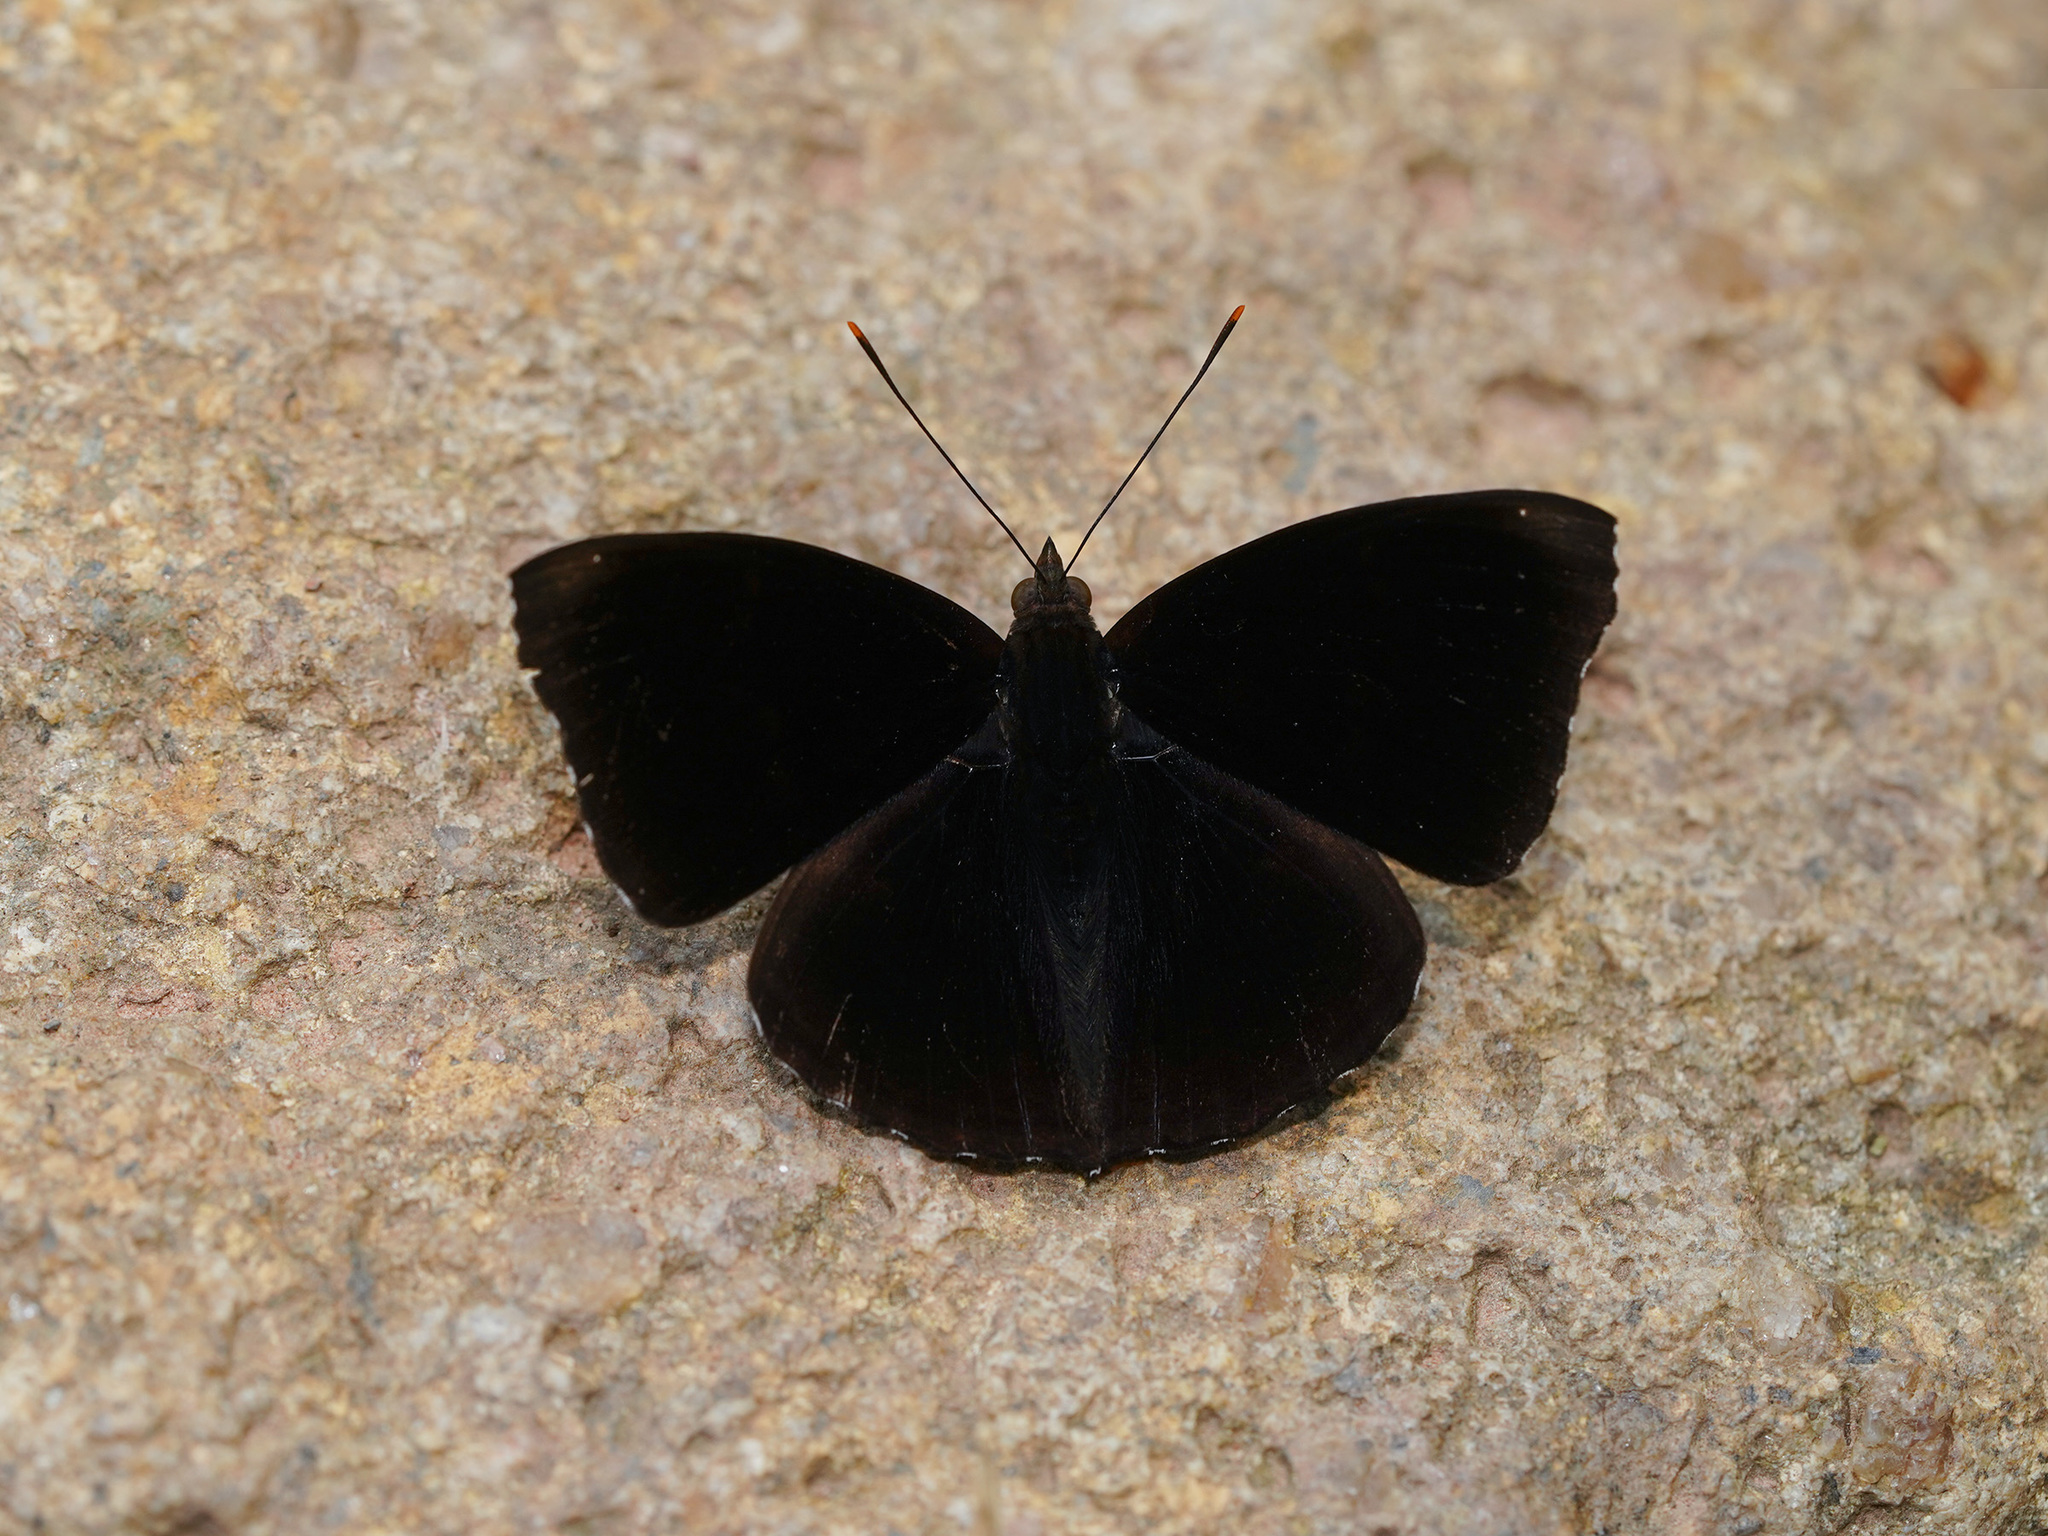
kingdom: Animalia
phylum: Arthropoda
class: Insecta
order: Lepidoptera
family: Nymphalidae
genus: Apatura
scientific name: Apatura parisatis
